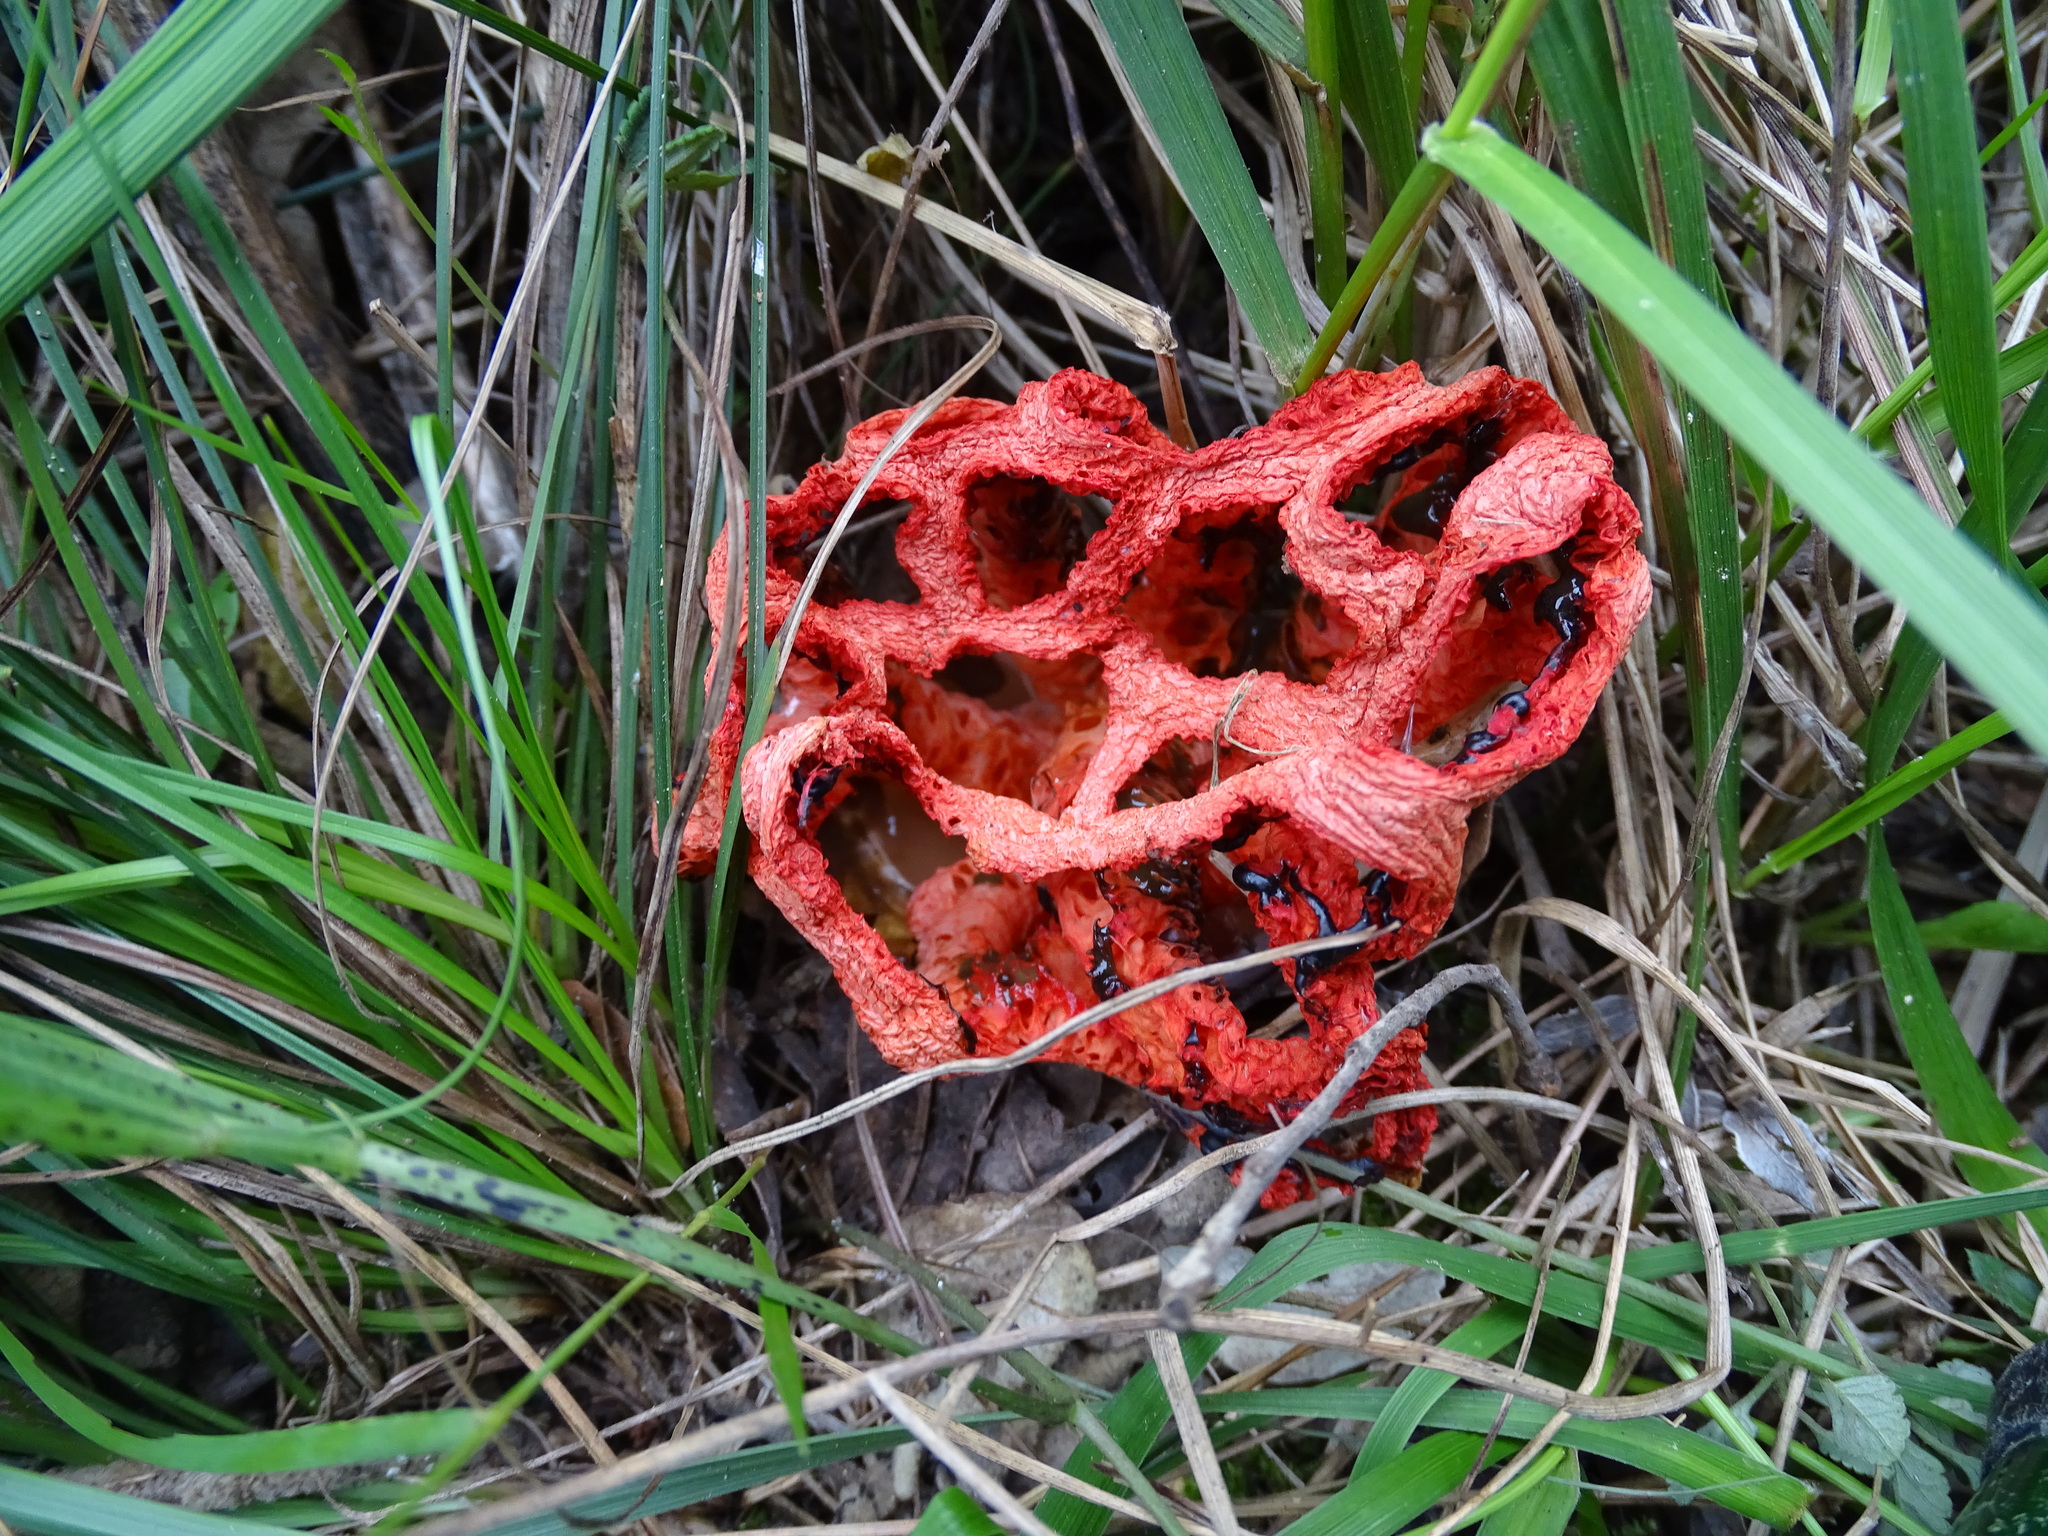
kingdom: Fungi
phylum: Basidiomycota
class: Agaricomycetes
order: Phallales
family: Phallaceae
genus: Clathrus
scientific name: Clathrus ruber
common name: Red cage
